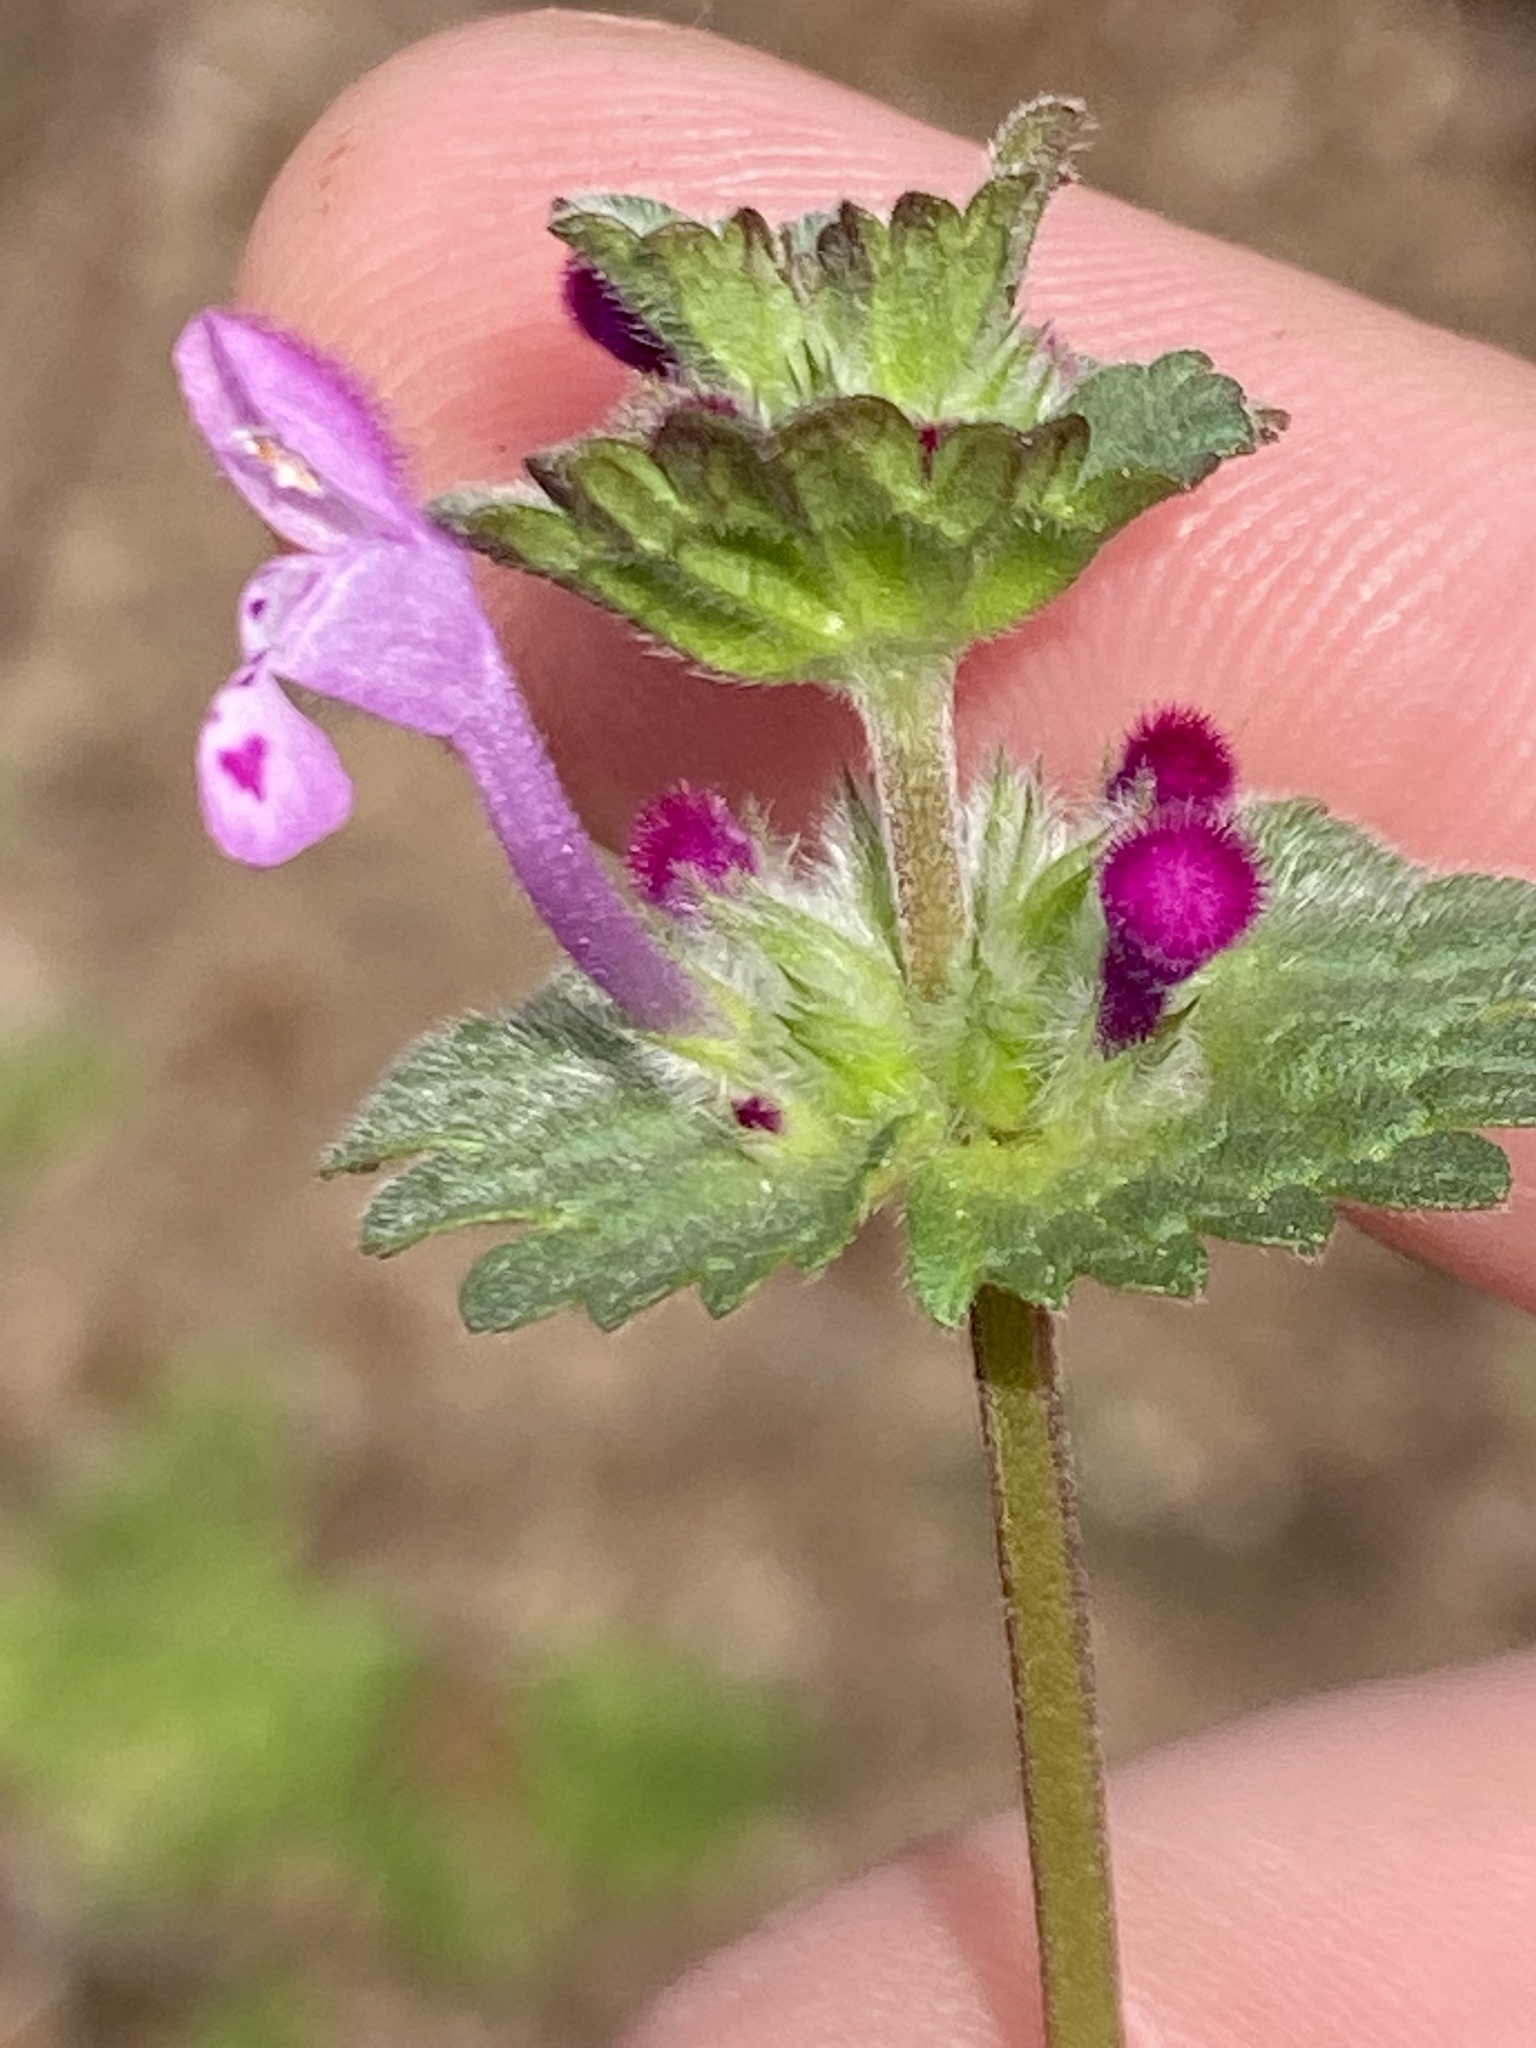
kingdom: Plantae
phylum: Tracheophyta
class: Magnoliopsida
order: Lamiales
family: Lamiaceae
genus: Lamium
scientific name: Lamium amplexicaule
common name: Henbit dead-nettle
